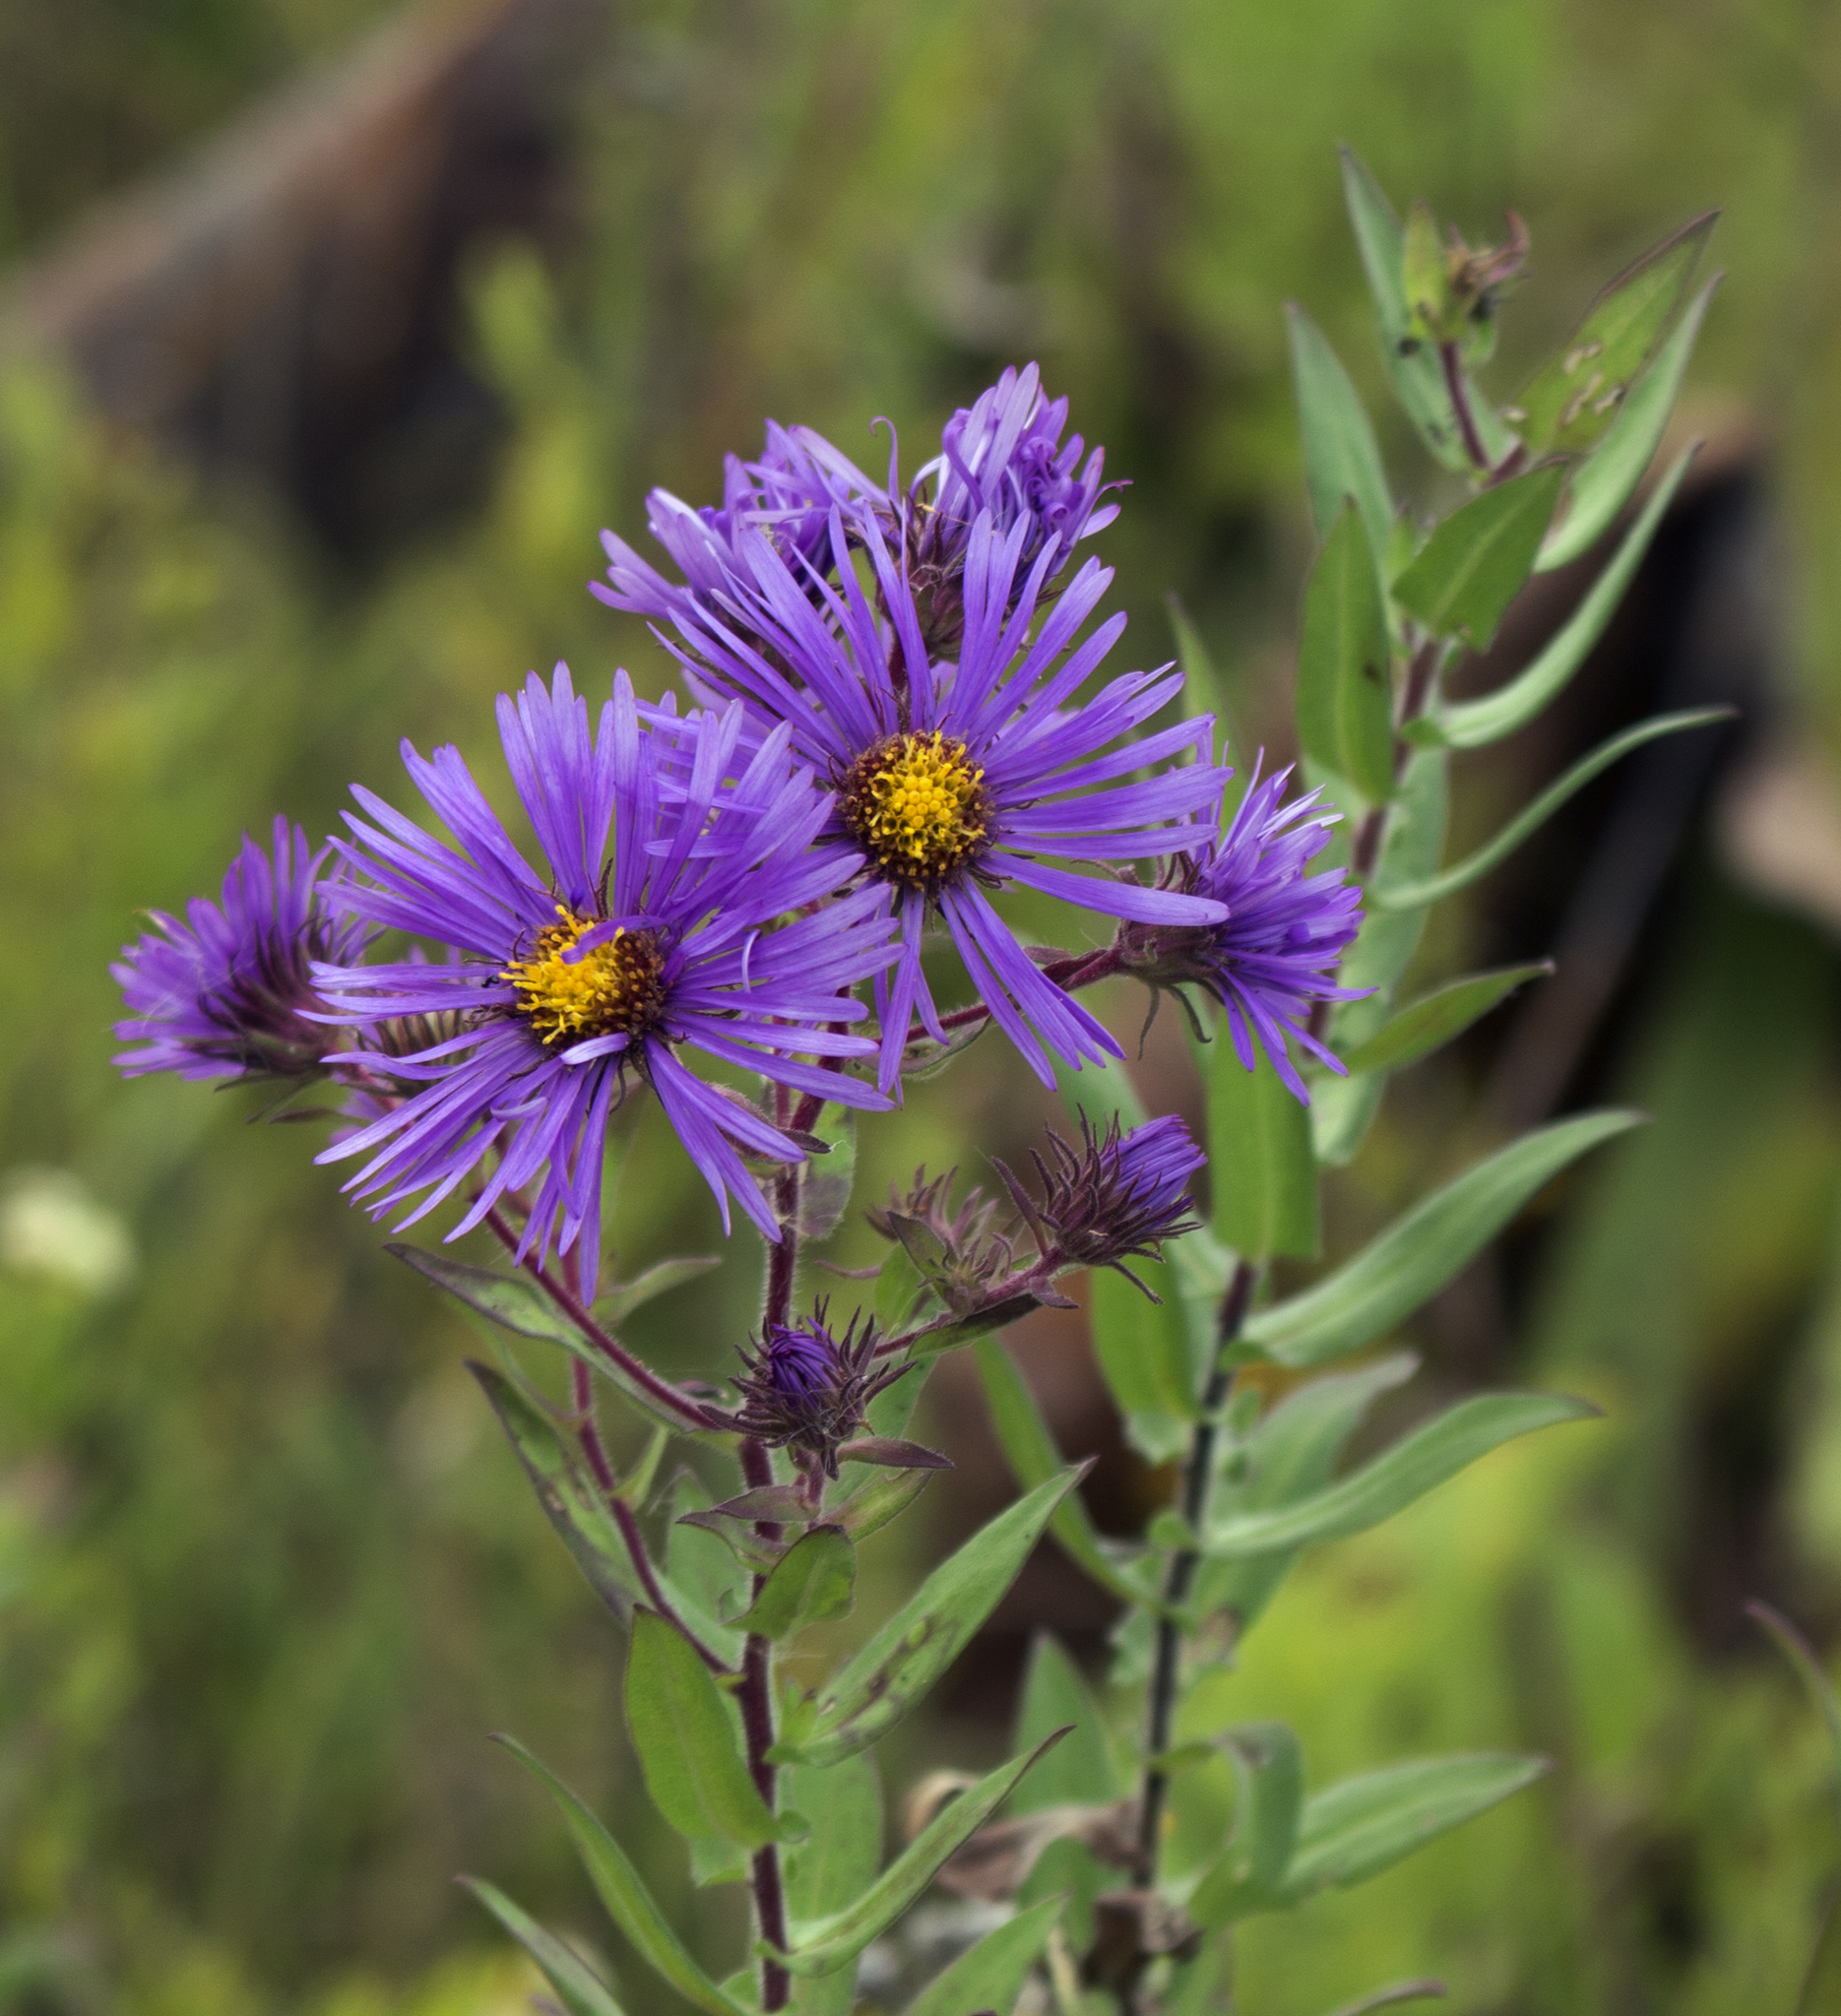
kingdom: Plantae
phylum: Tracheophyta
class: Magnoliopsida
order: Asterales
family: Asteraceae
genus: Symphyotrichum
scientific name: Symphyotrichum novae-angliae
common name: Michaelmas daisy
